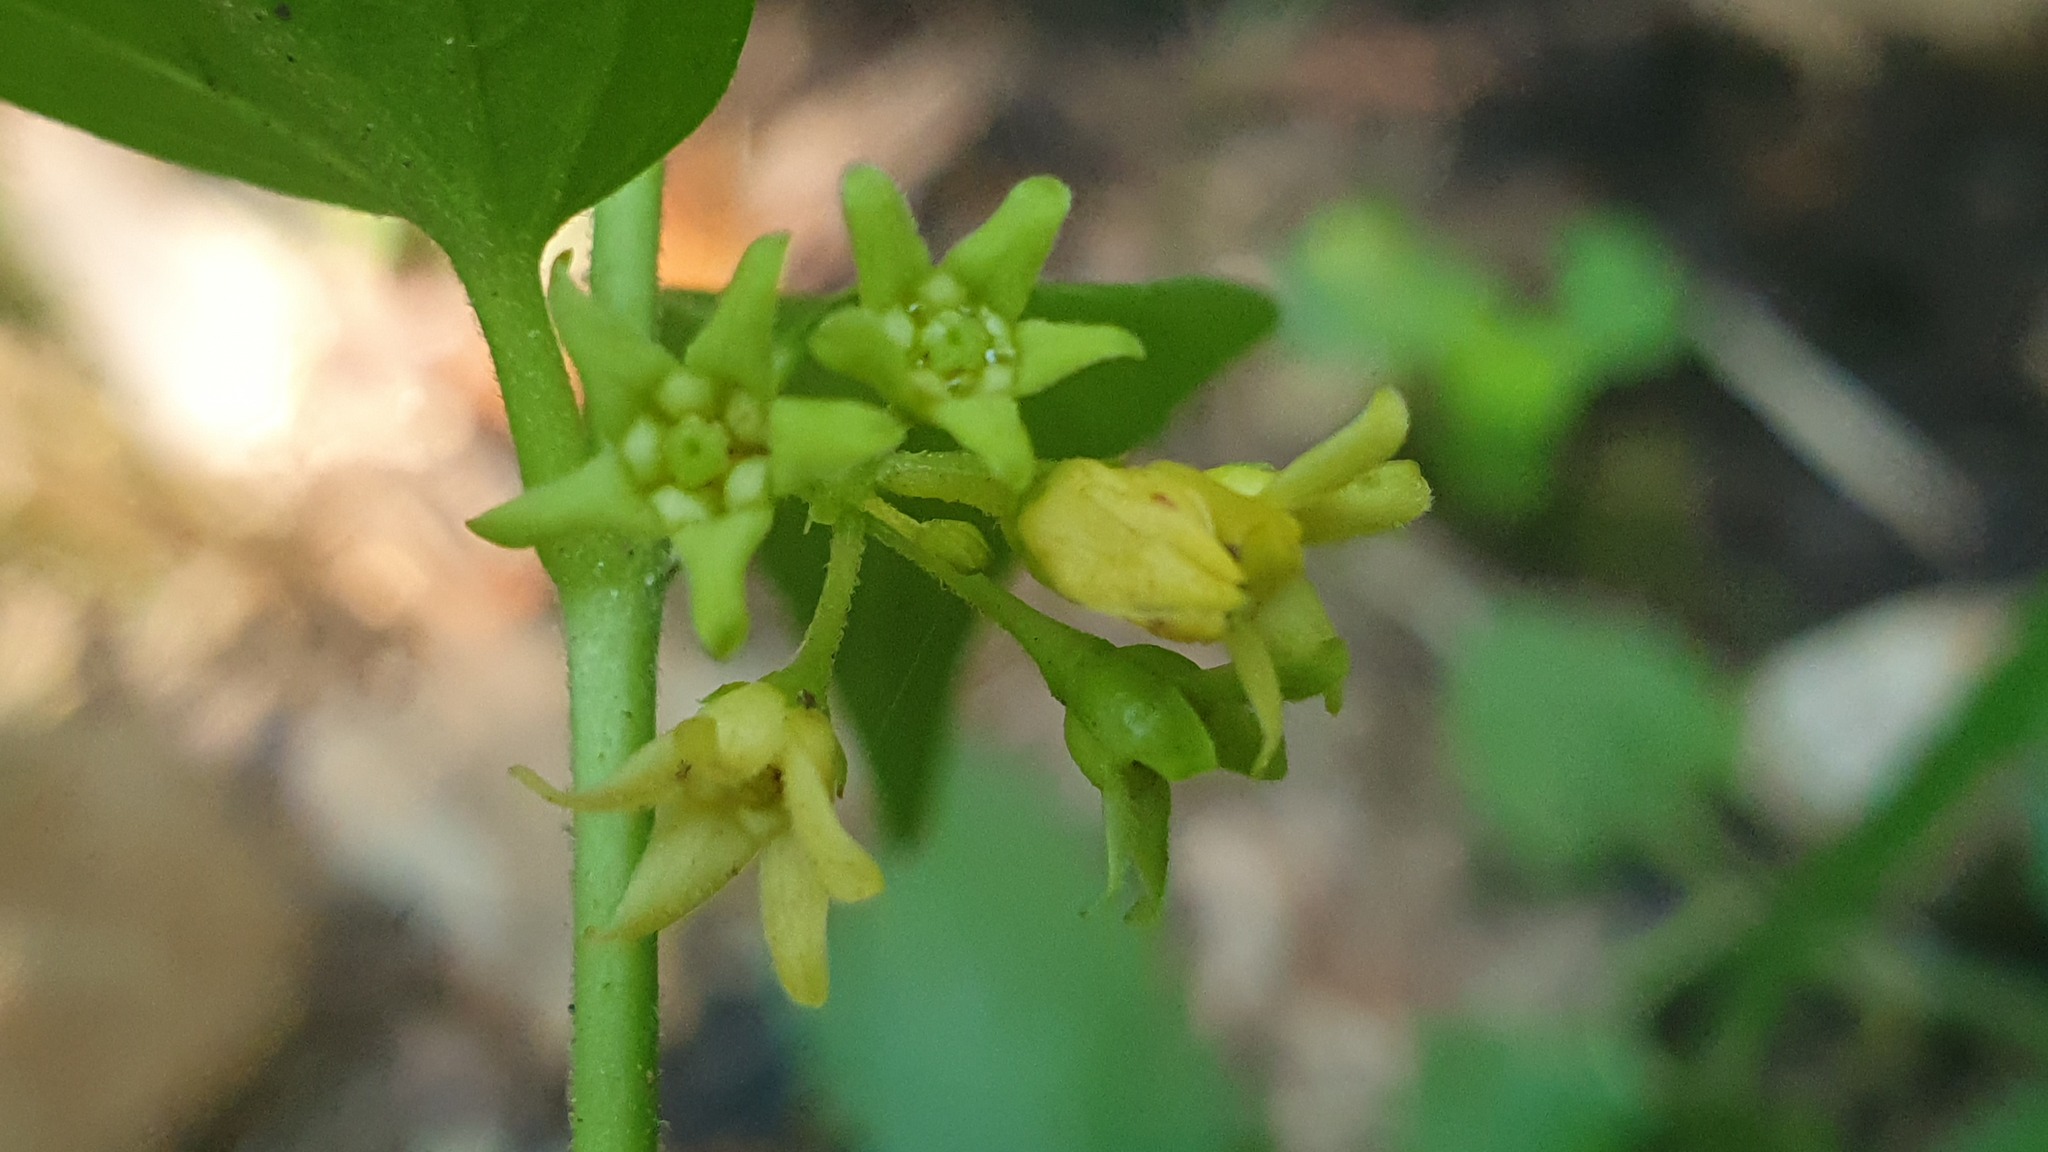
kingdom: Plantae
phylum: Tracheophyta
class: Magnoliopsida
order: Gentianales
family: Apocynaceae
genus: Vincetoxicum
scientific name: Vincetoxicum hirundinaria
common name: White swallowwort
